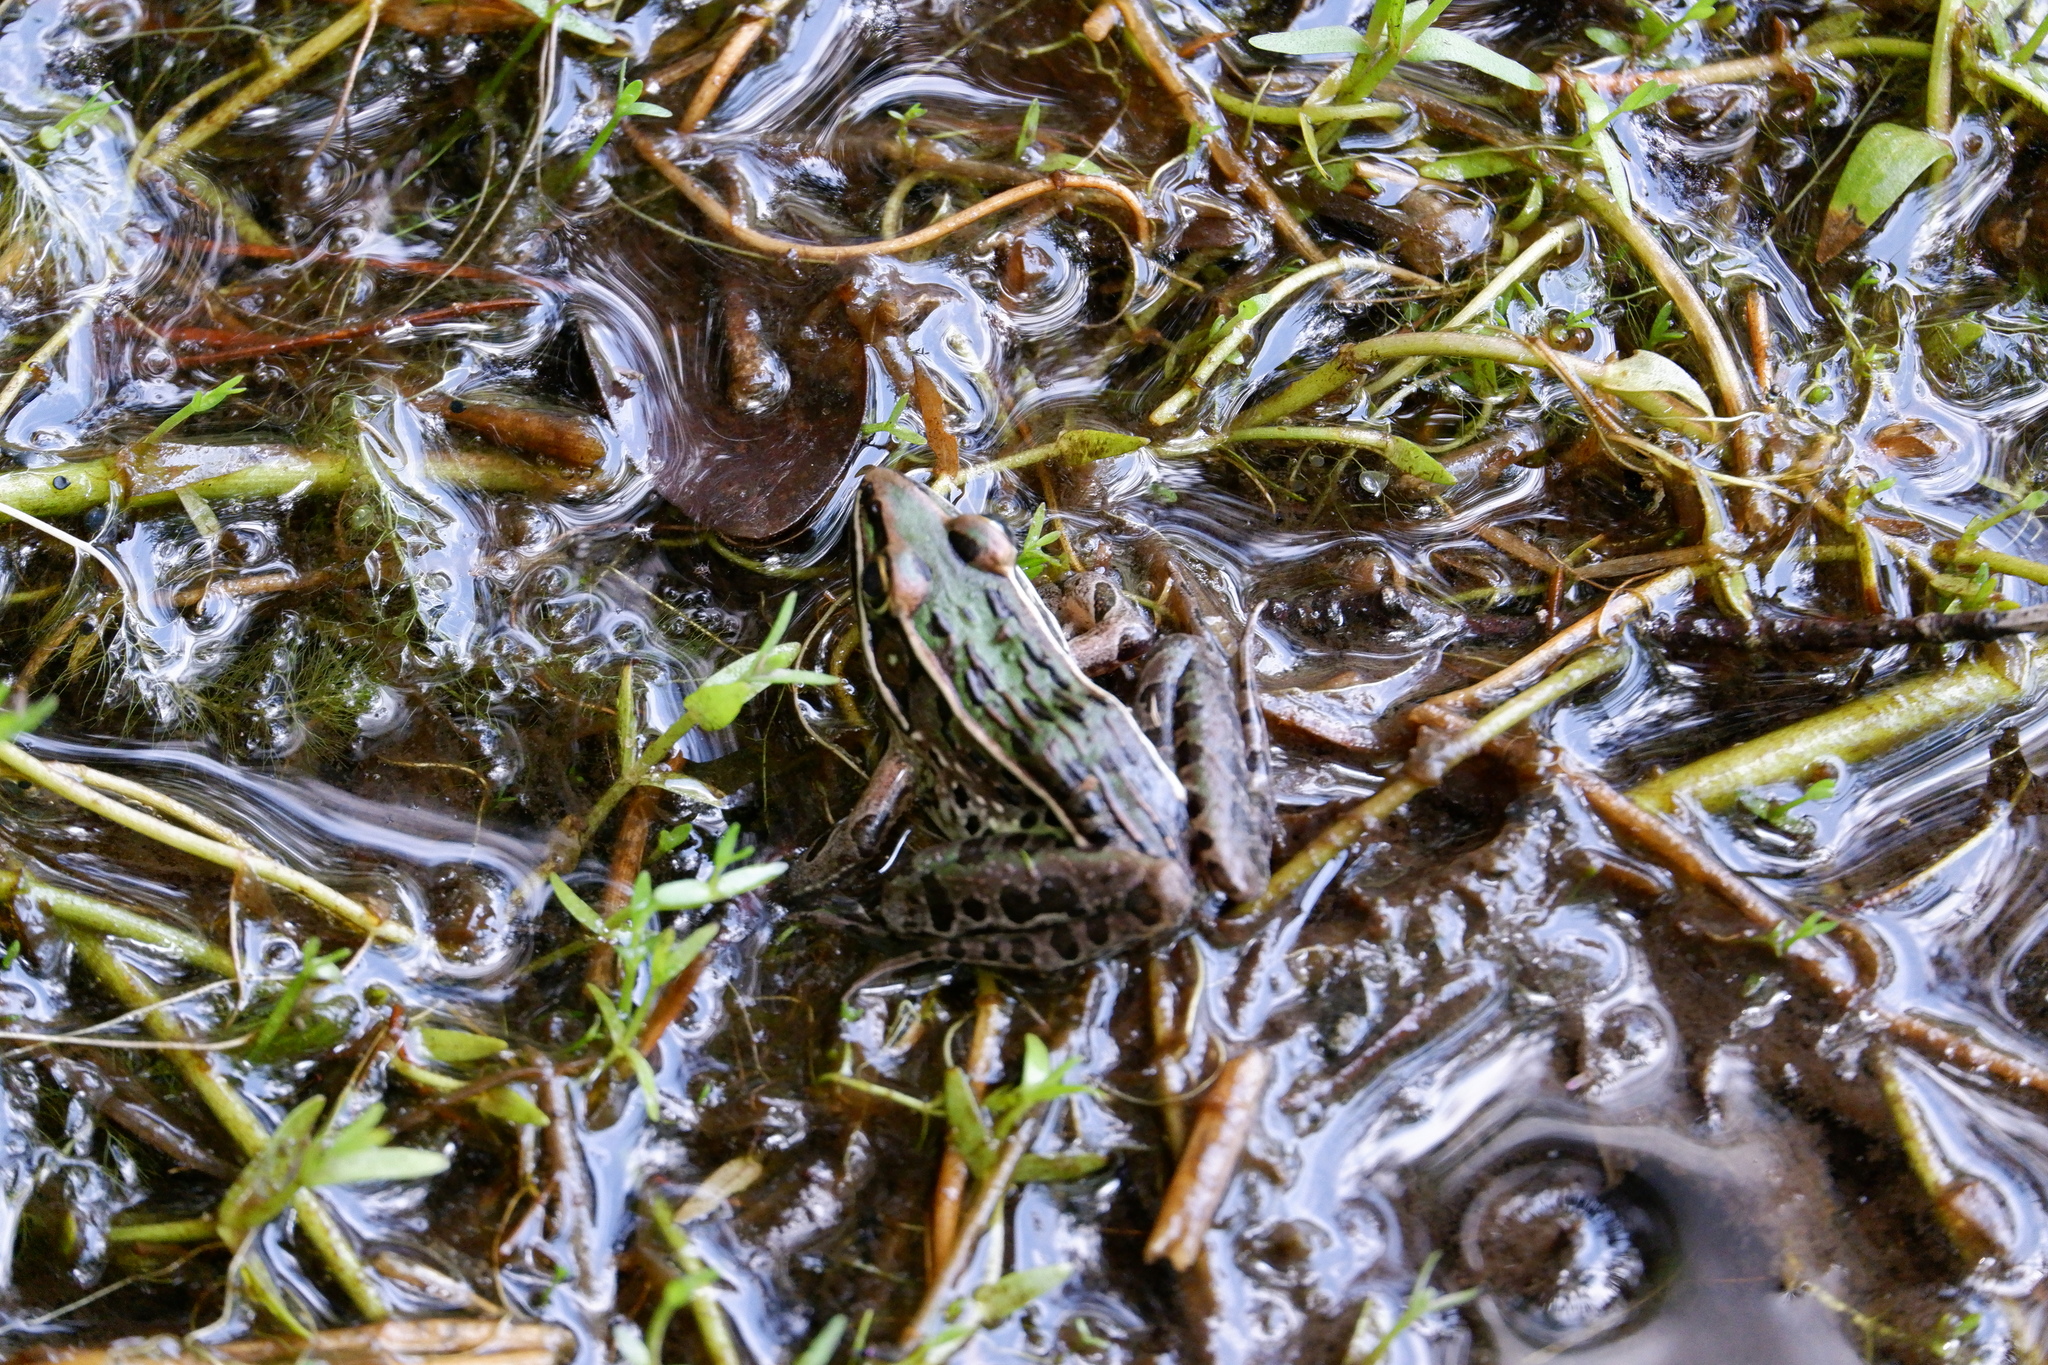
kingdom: Animalia
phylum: Chordata
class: Amphibia
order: Anura
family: Ranidae
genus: Lithobates
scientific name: Lithobates sphenocephalus
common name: Southern leopard frog
